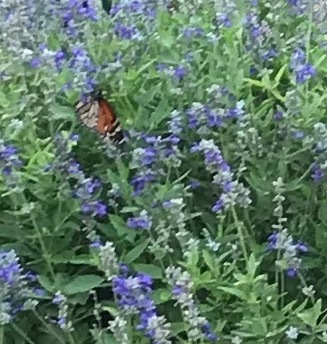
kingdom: Animalia
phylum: Arthropoda
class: Insecta
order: Lepidoptera
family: Nymphalidae
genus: Danaus
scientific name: Danaus plexippus
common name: Monarch
